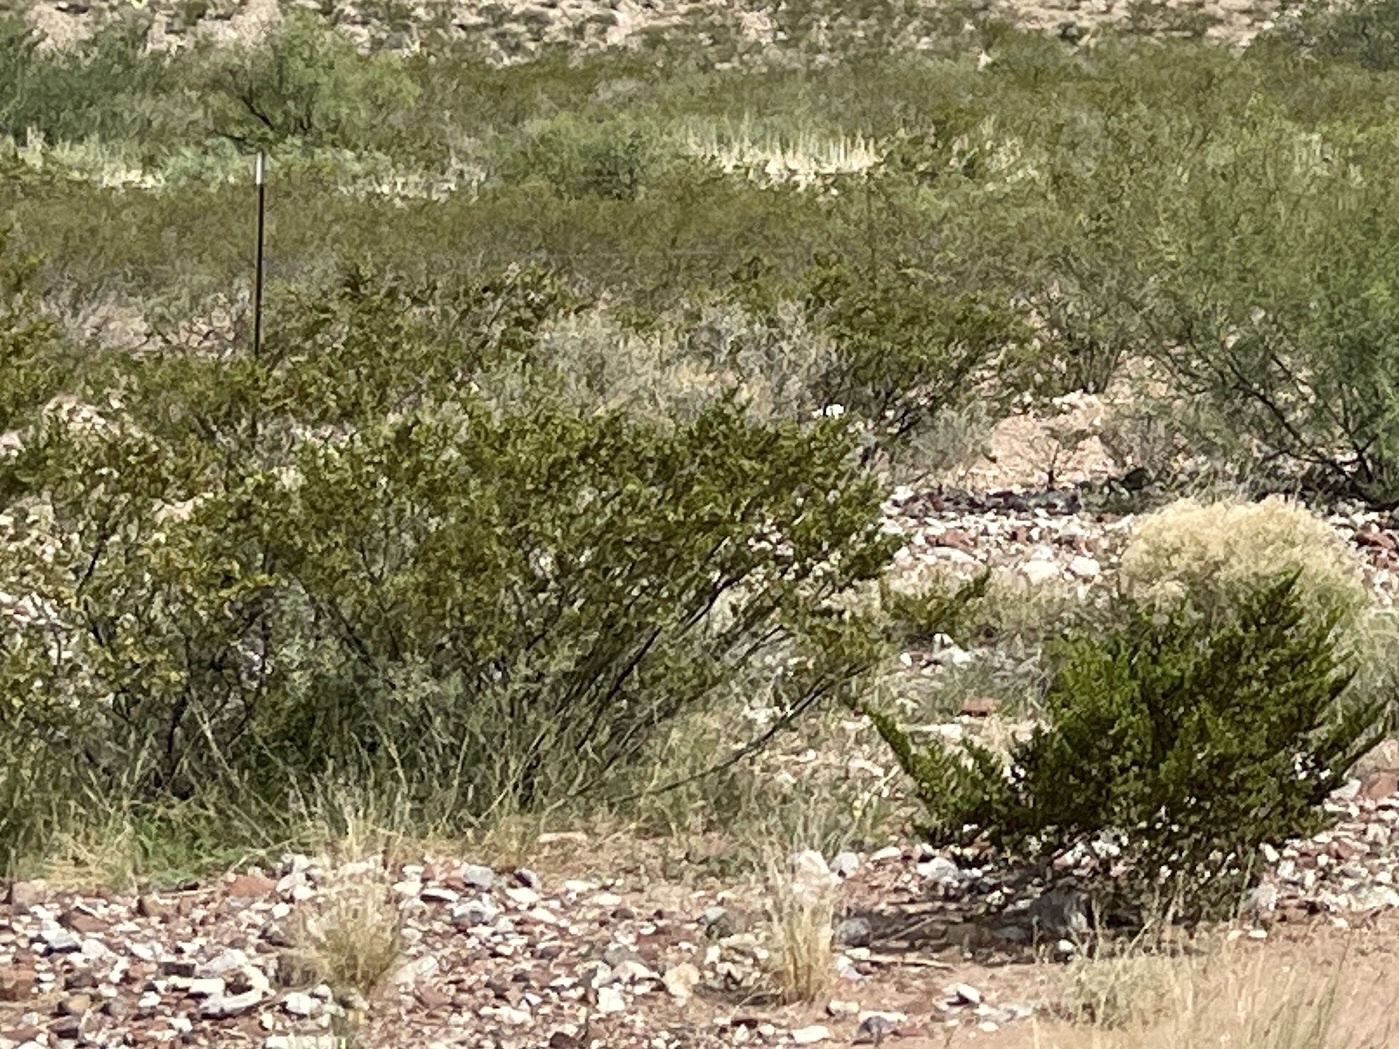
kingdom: Plantae
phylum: Tracheophyta
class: Magnoliopsida
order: Zygophyllales
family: Zygophyllaceae
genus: Larrea
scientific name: Larrea tridentata
